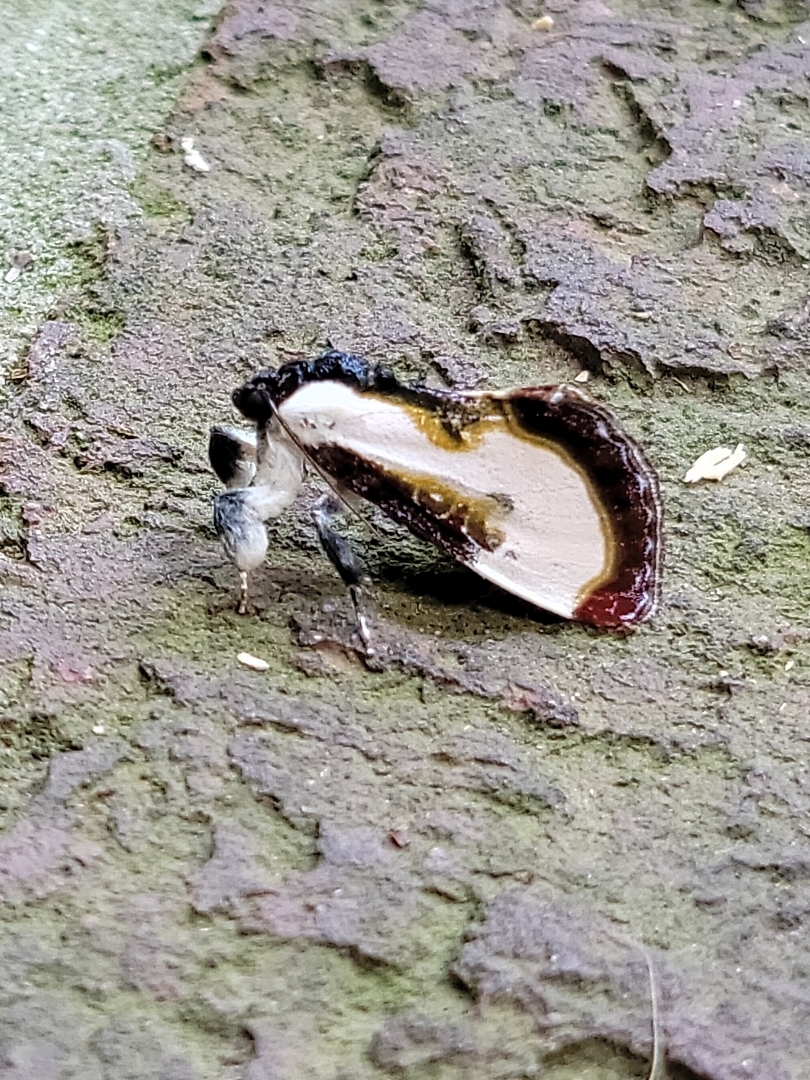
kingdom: Animalia
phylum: Arthropoda
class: Insecta
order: Lepidoptera
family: Noctuidae
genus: Eudryas
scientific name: Eudryas grata
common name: Beautiful wood-nymph
